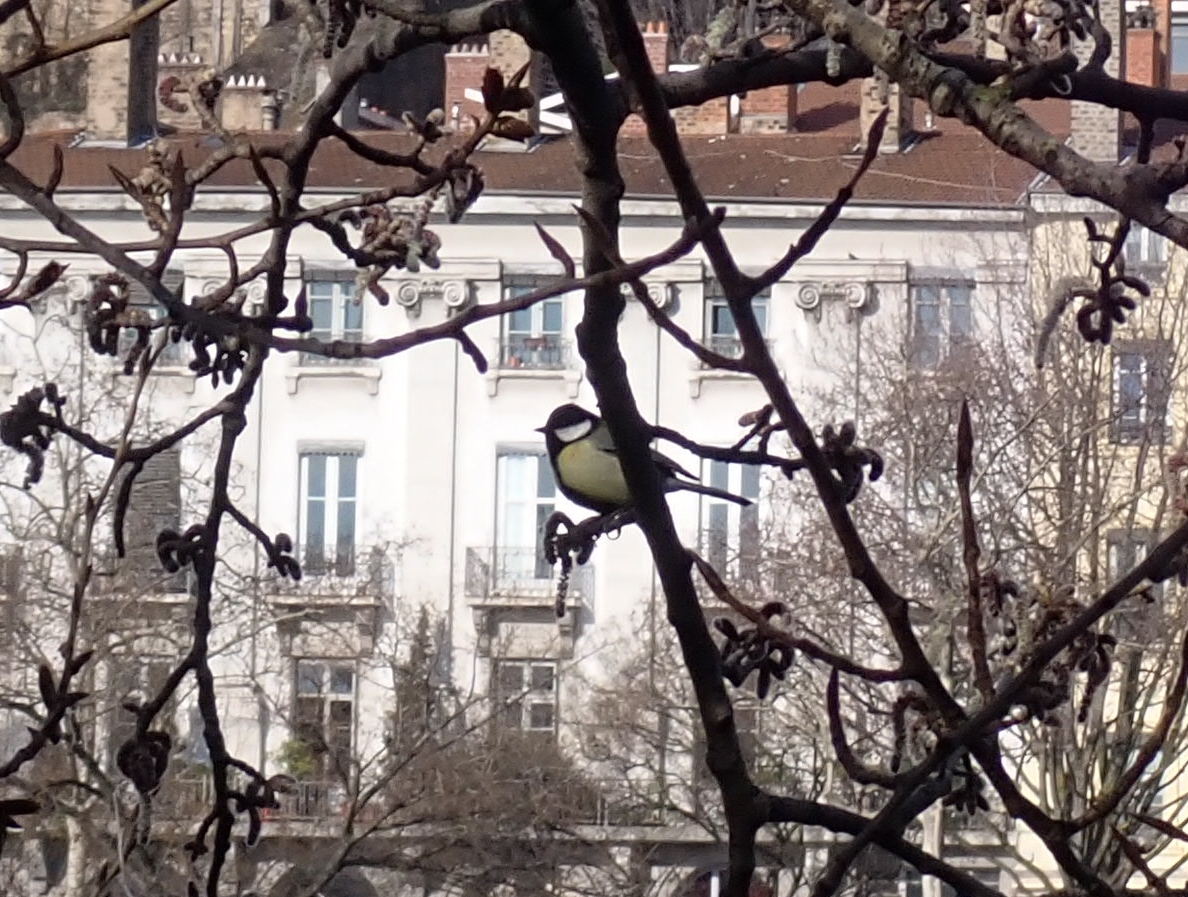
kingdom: Animalia
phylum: Chordata
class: Aves
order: Passeriformes
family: Paridae
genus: Parus
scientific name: Parus major
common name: Great tit
